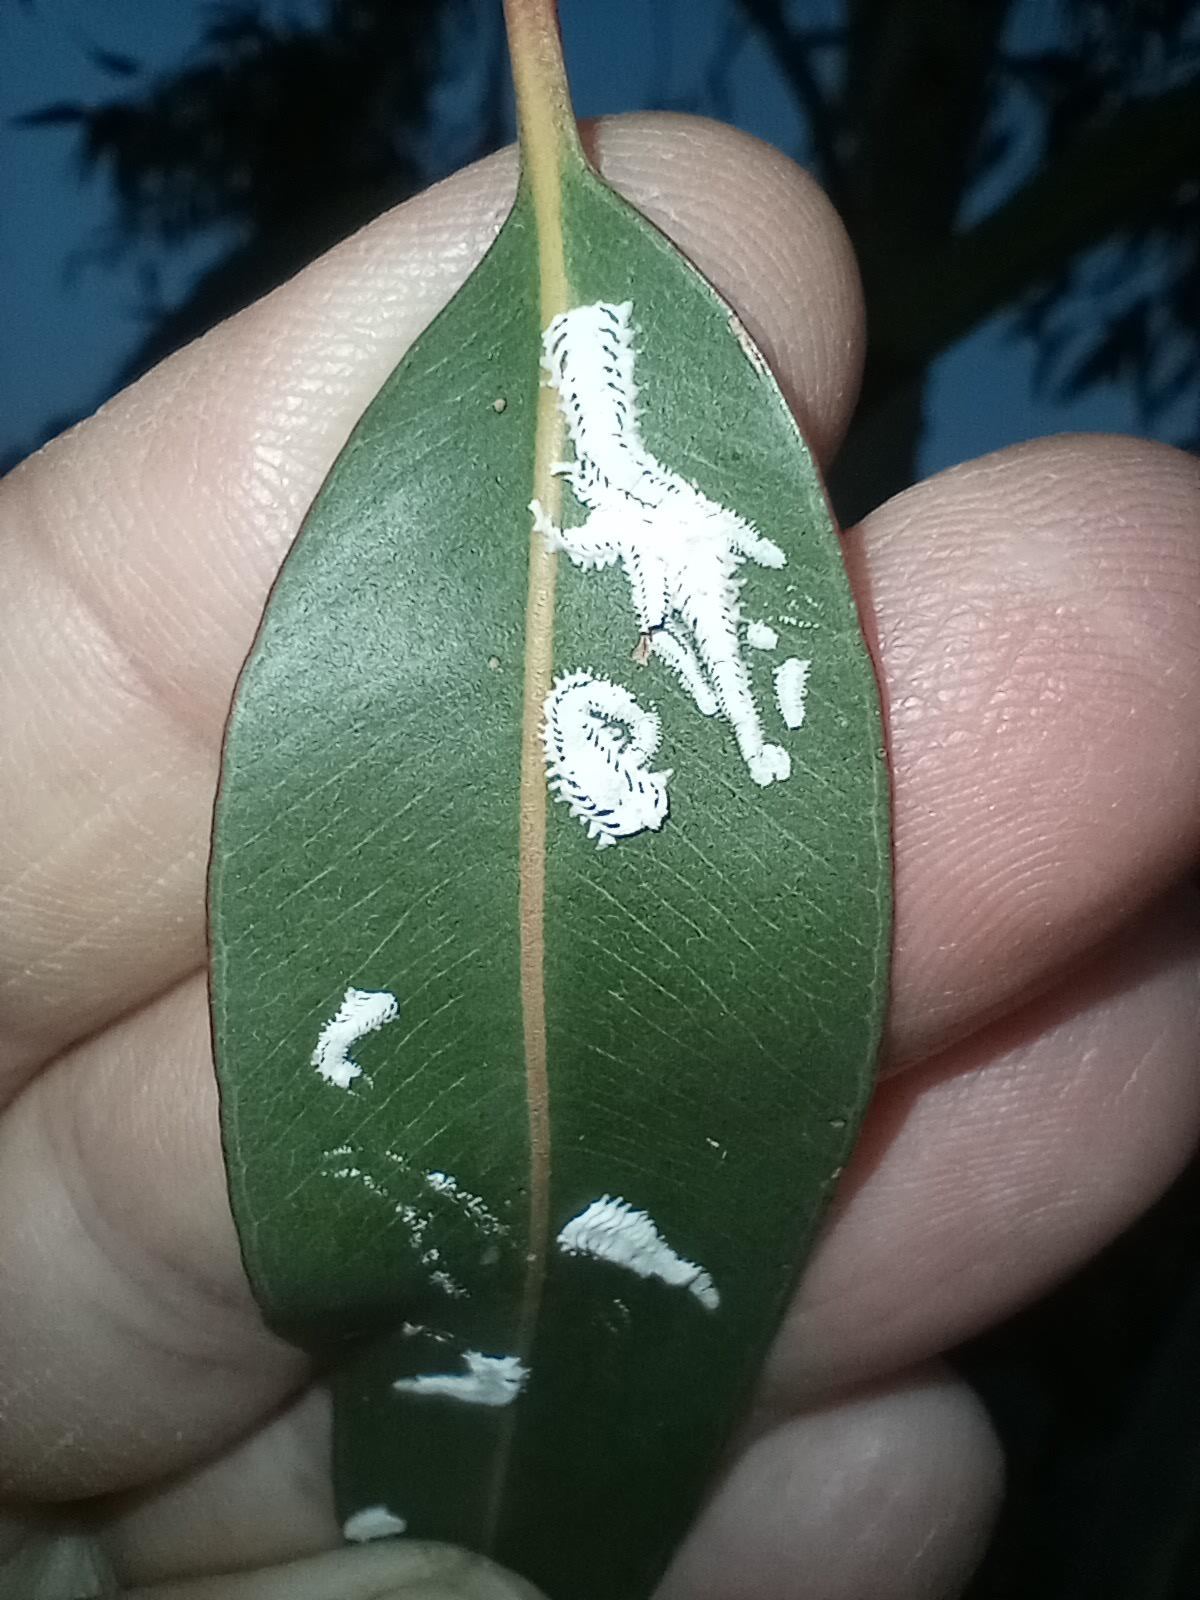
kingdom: Animalia
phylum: Arthropoda
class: Insecta
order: Hemiptera
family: Aphalaridae
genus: Eucalyptolyma
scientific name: Eucalyptolyma maideni
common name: Spotted gum lerp psyllid
